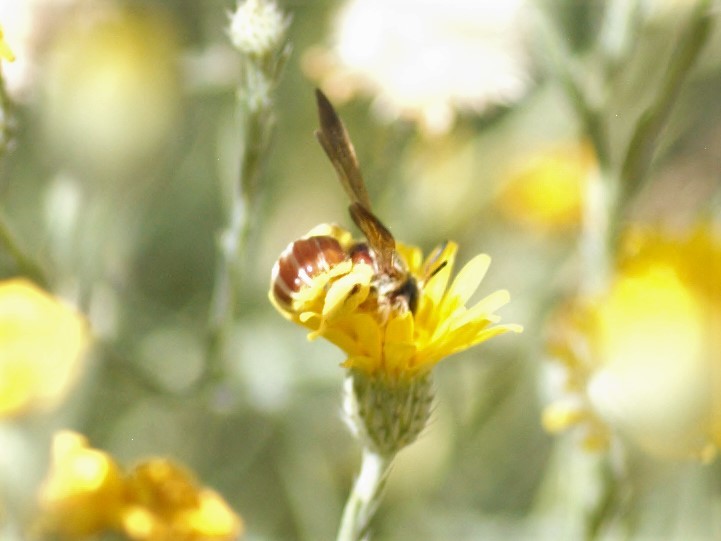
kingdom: Animalia
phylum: Arthropoda
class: Insecta
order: Hymenoptera
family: Halictidae
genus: Dieunomia
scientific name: Dieunomia nevadensis
